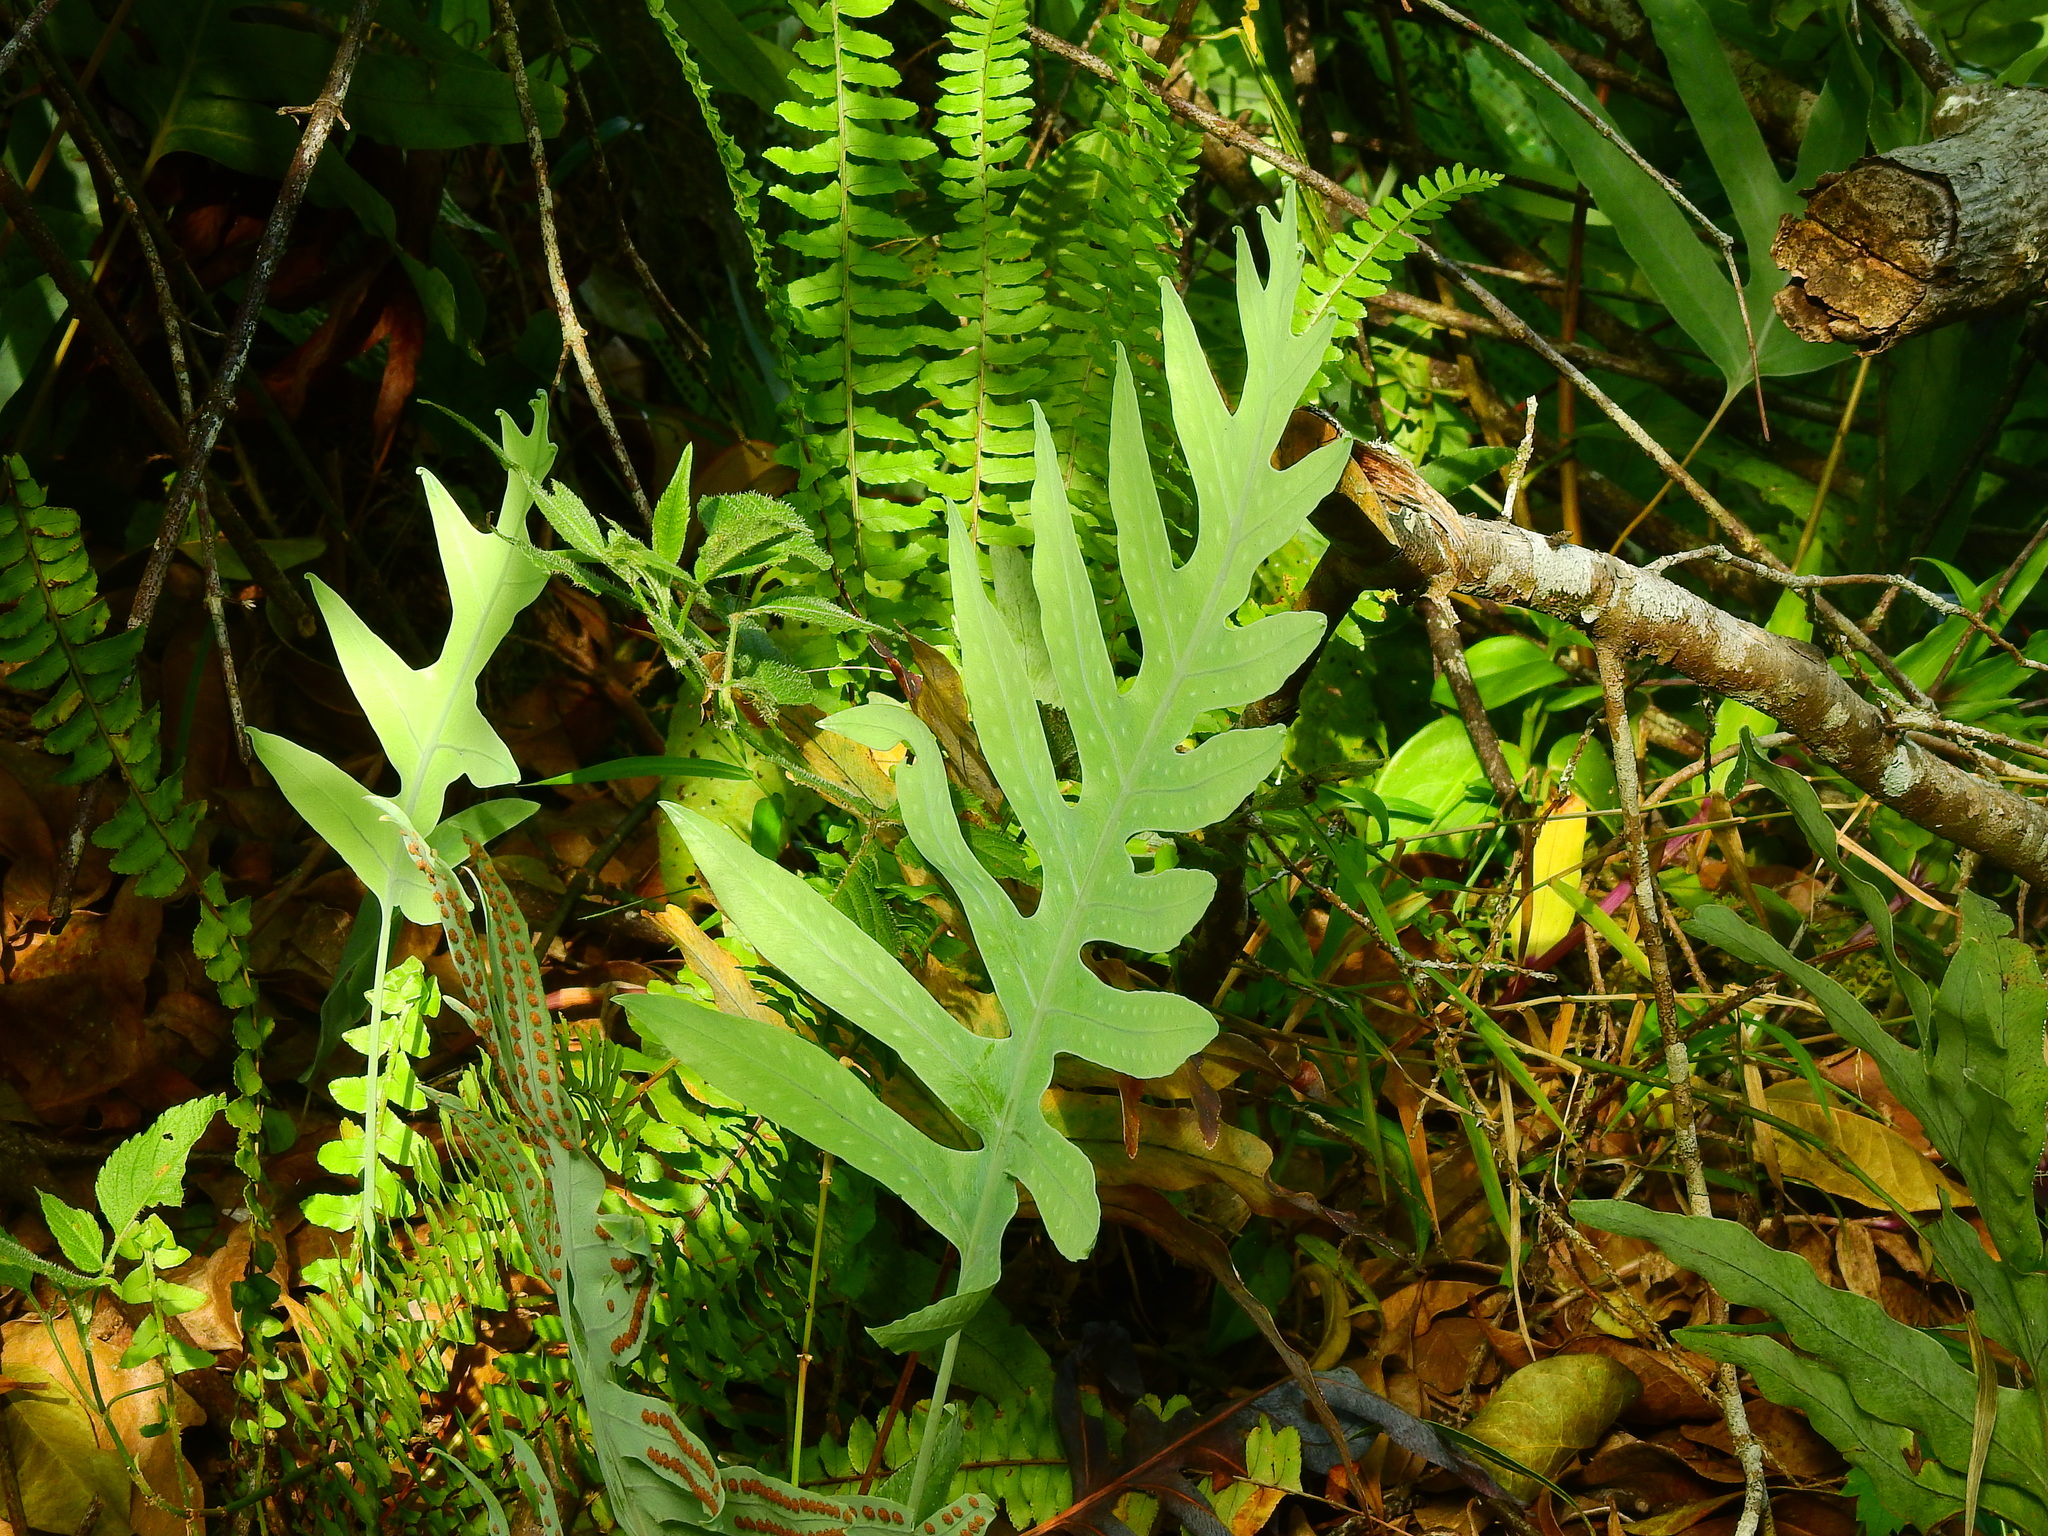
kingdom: Plantae
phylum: Tracheophyta
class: Polypodiopsida
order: Polypodiales
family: Polypodiaceae
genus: Phlebodium
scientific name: Phlebodium pseudoaureum
